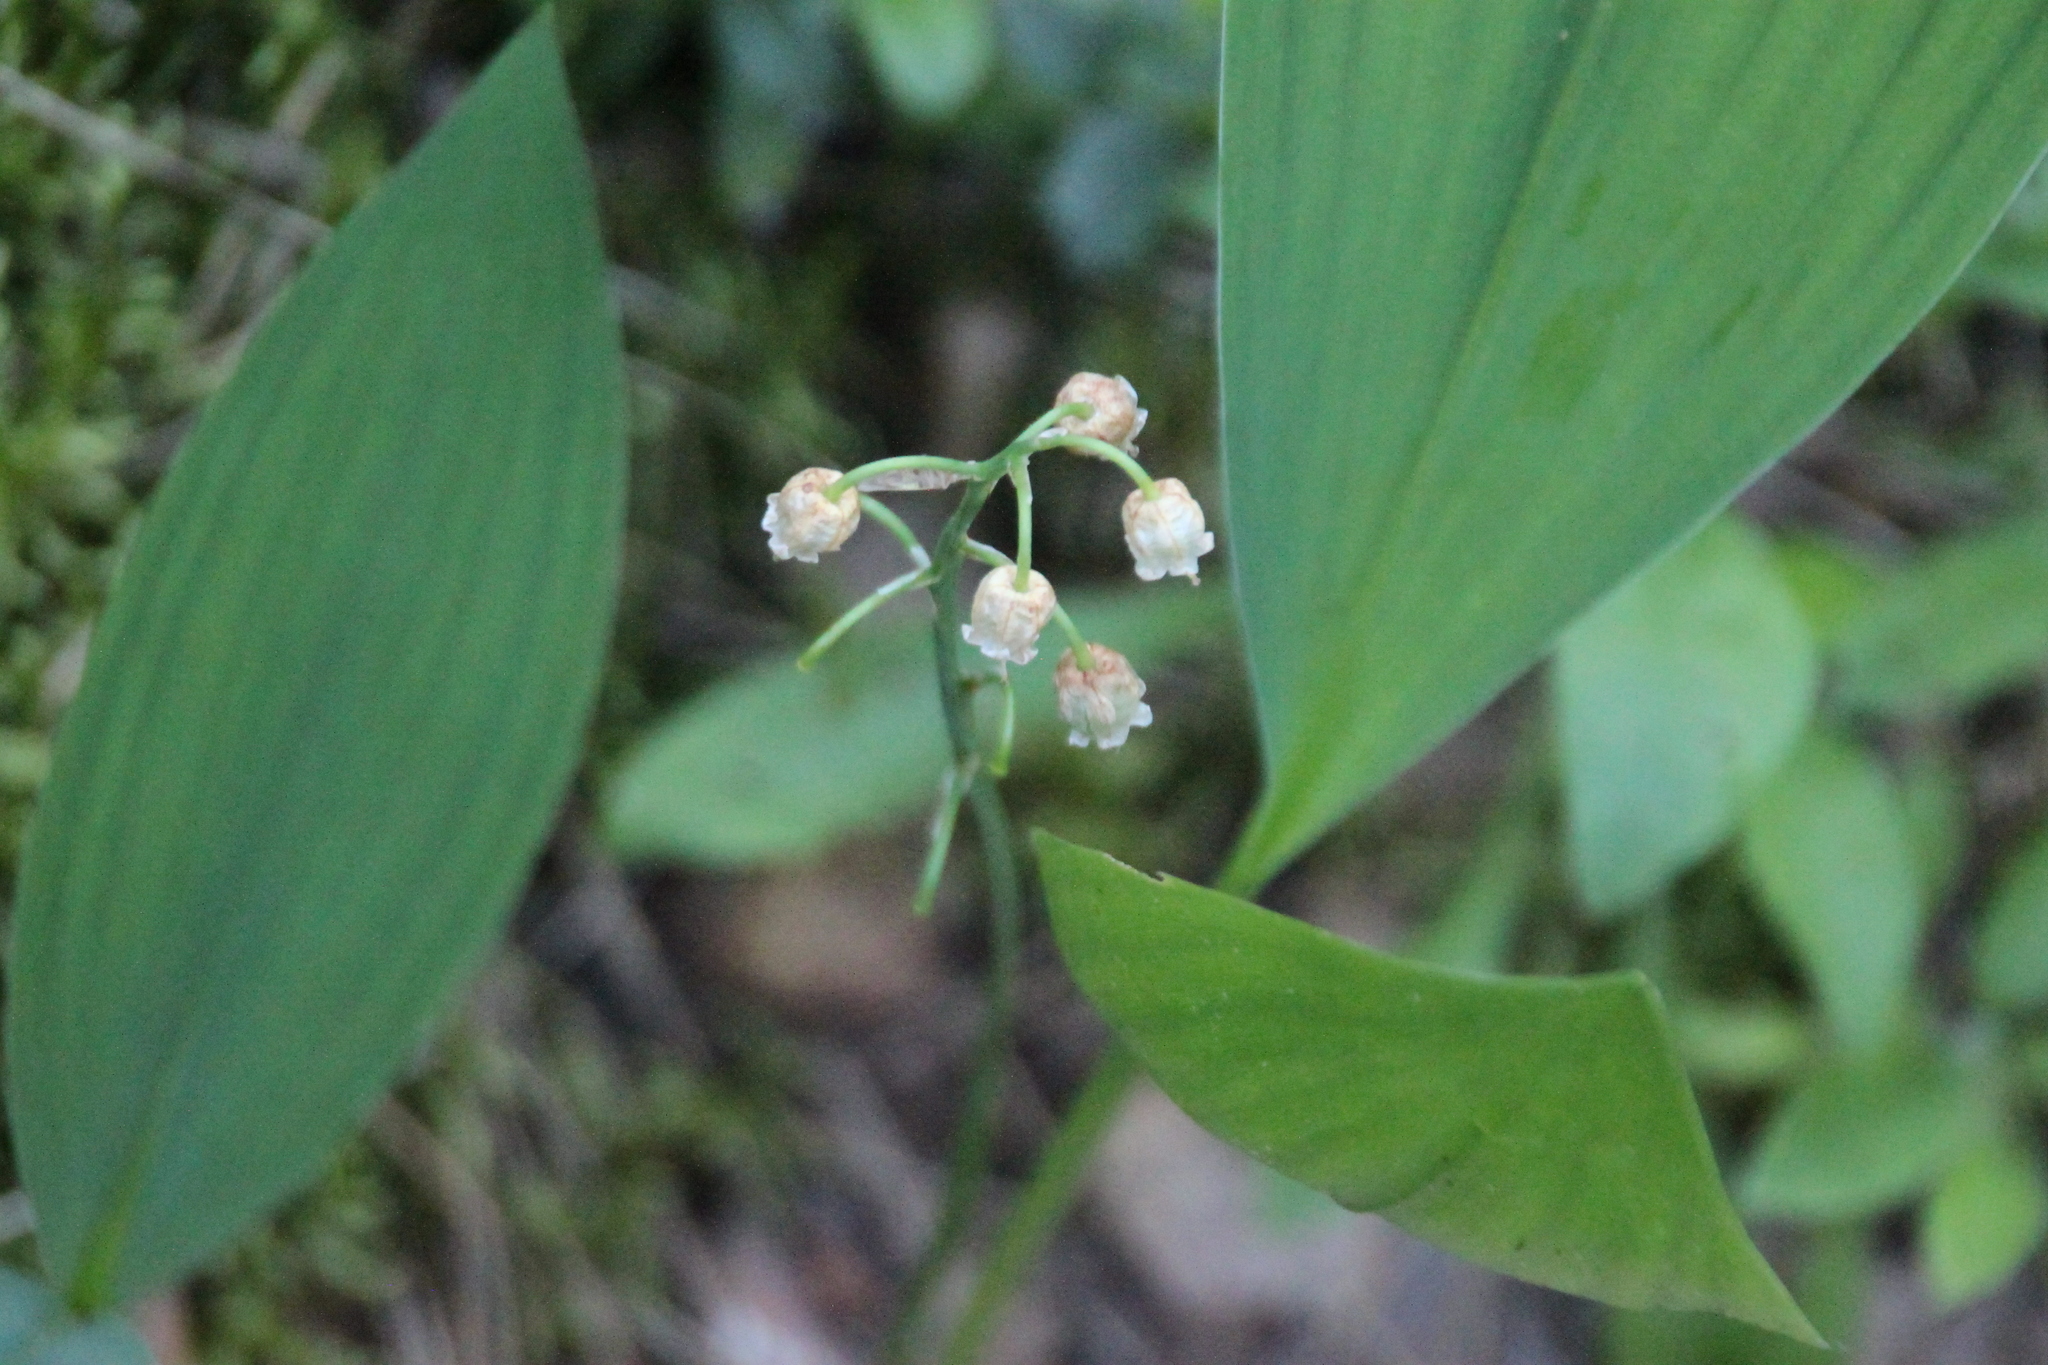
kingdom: Plantae
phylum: Tracheophyta
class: Liliopsida
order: Asparagales
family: Asparagaceae
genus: Convallaria
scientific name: Convallaria majalis
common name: Lily-of-the-valley
